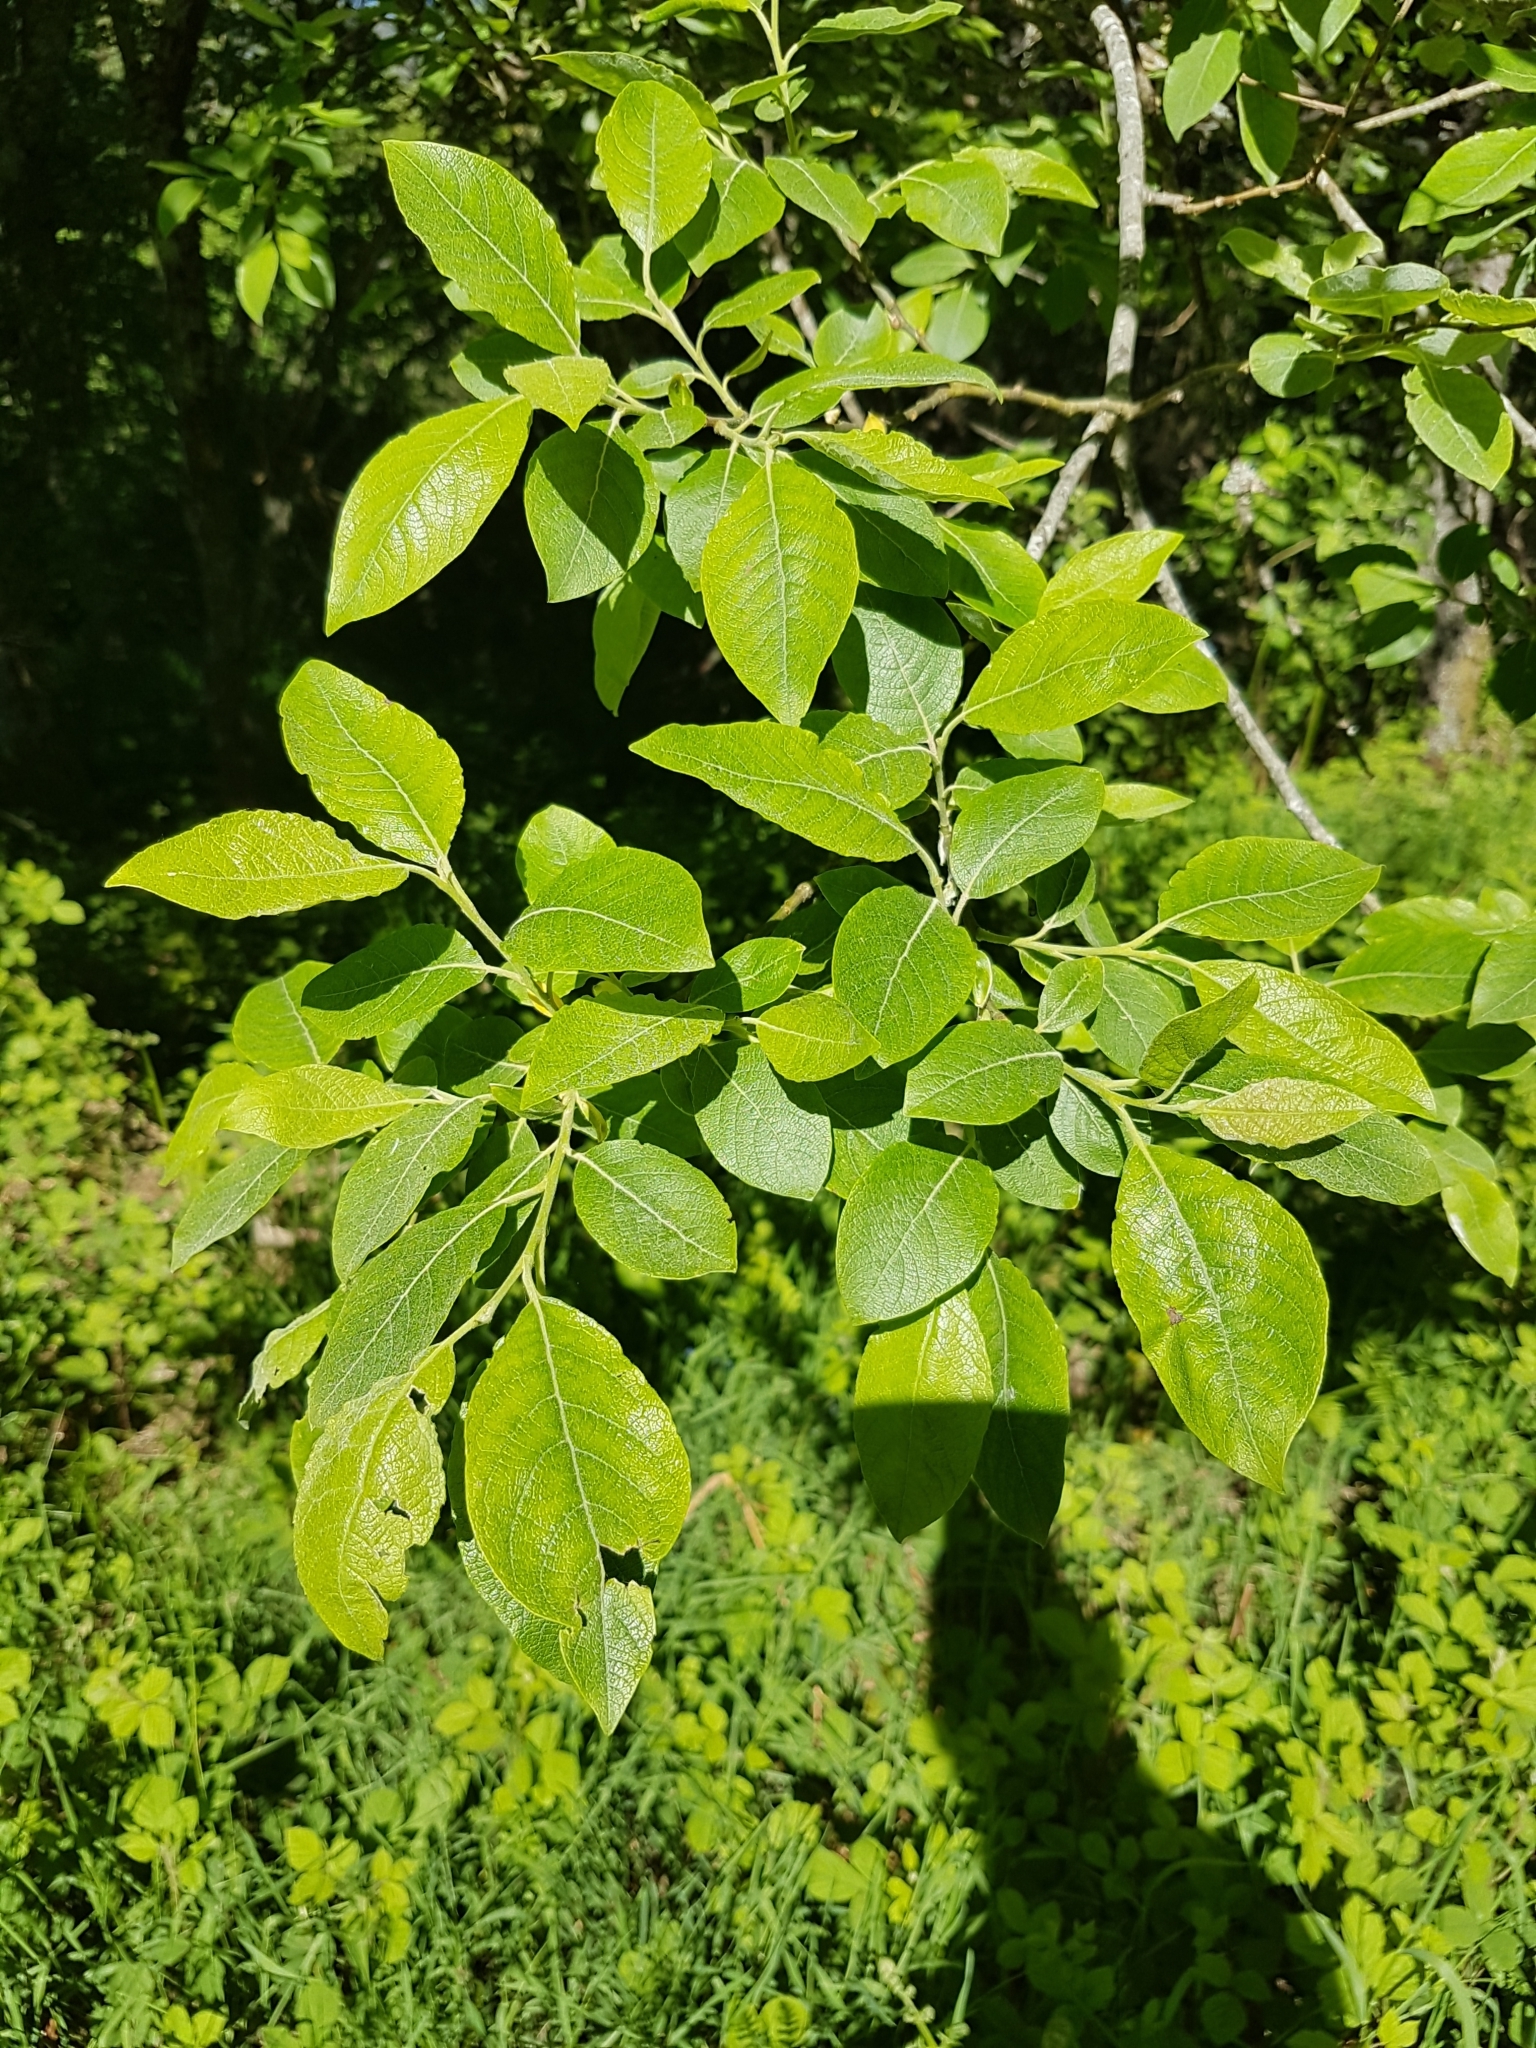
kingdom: Plantae
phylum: Tracheophyta
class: Magnoliopsida
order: Malpighiales
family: Salicaceae
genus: Salix
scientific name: Salix caprea
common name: Goat willow
